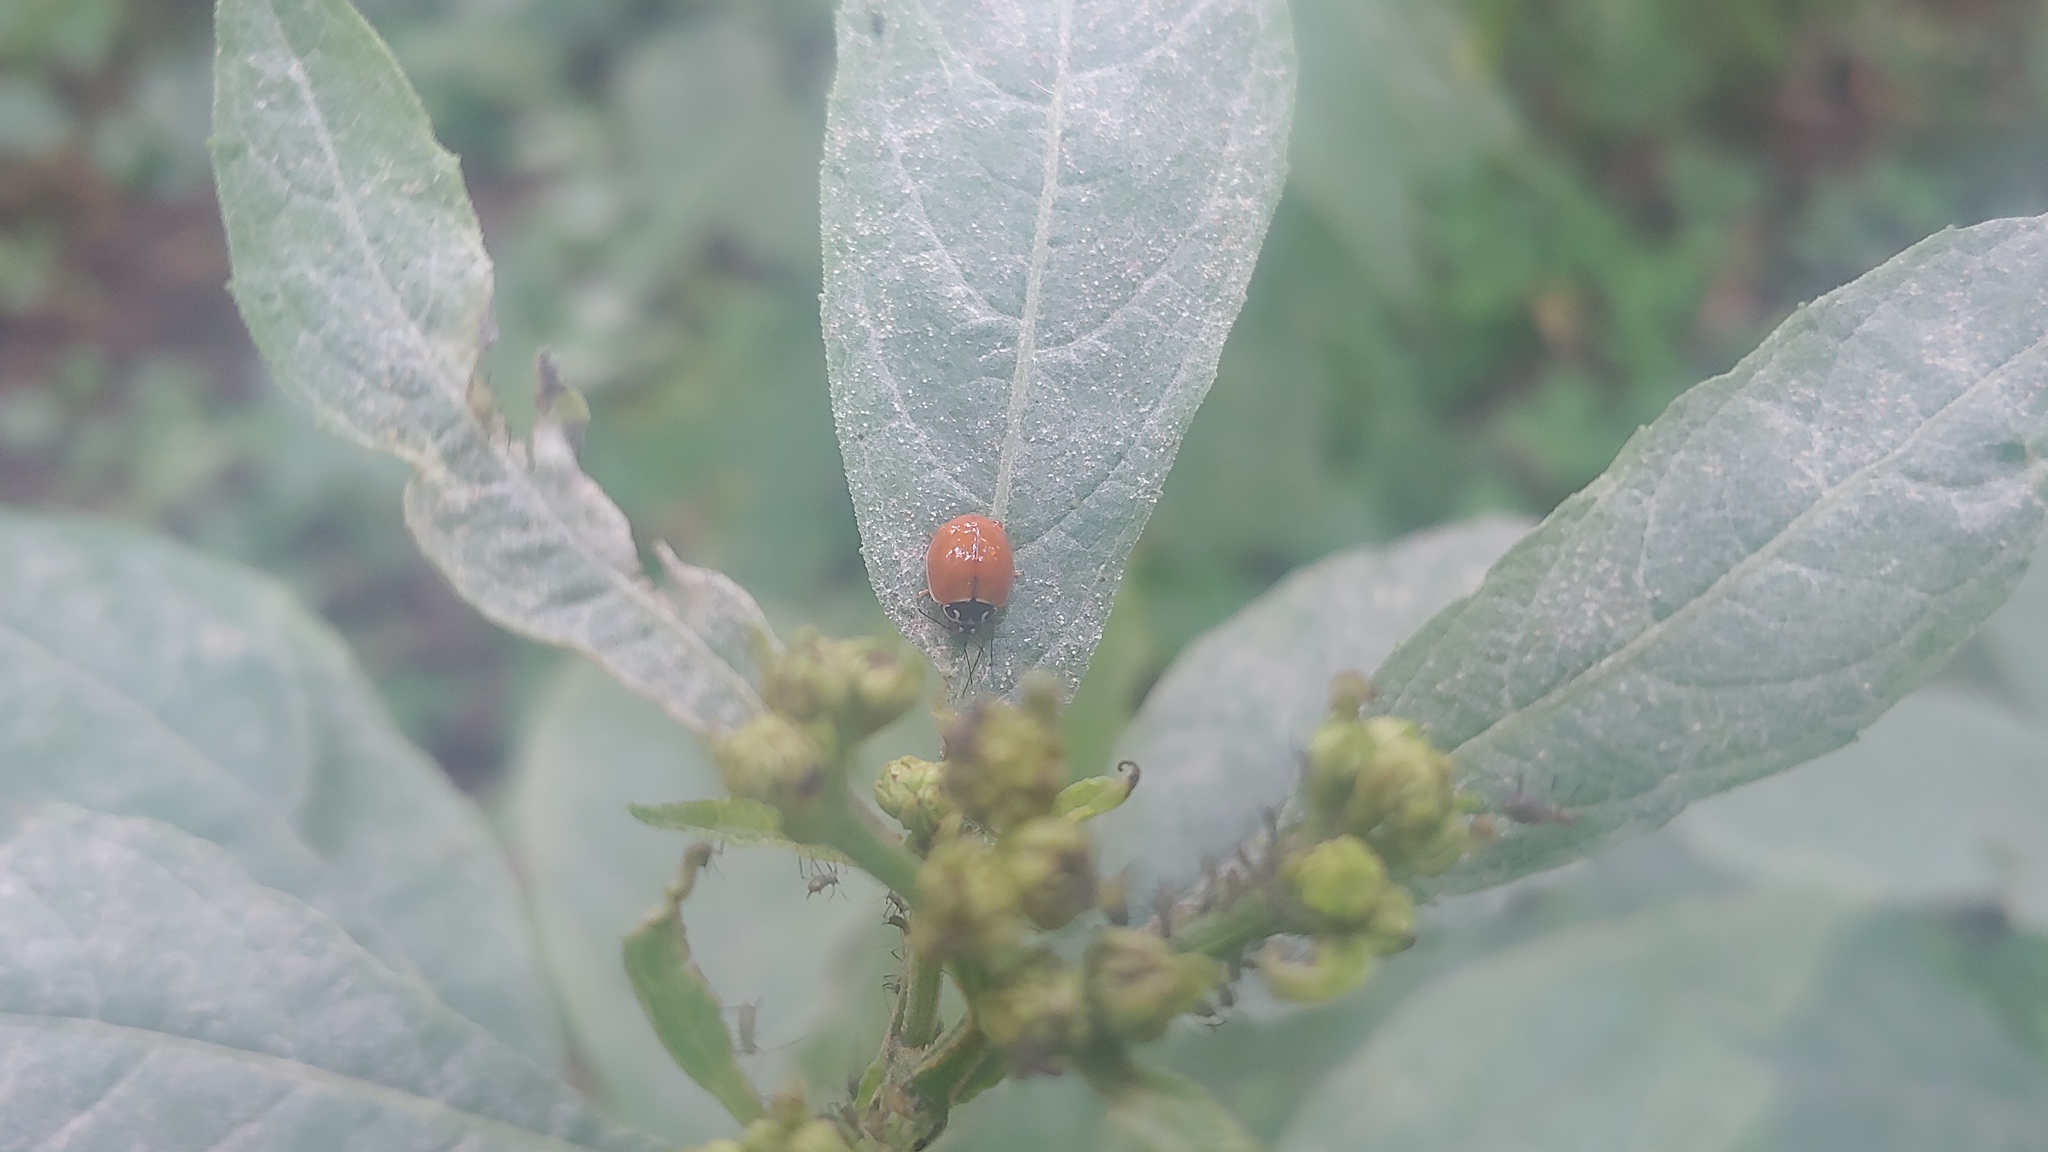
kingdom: Animalia
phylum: Arthropoda
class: Insecta
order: Coleoptera
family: Coccinellidae
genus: Cycloneda
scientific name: Cycloneda munda
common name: Polished lady beetle
